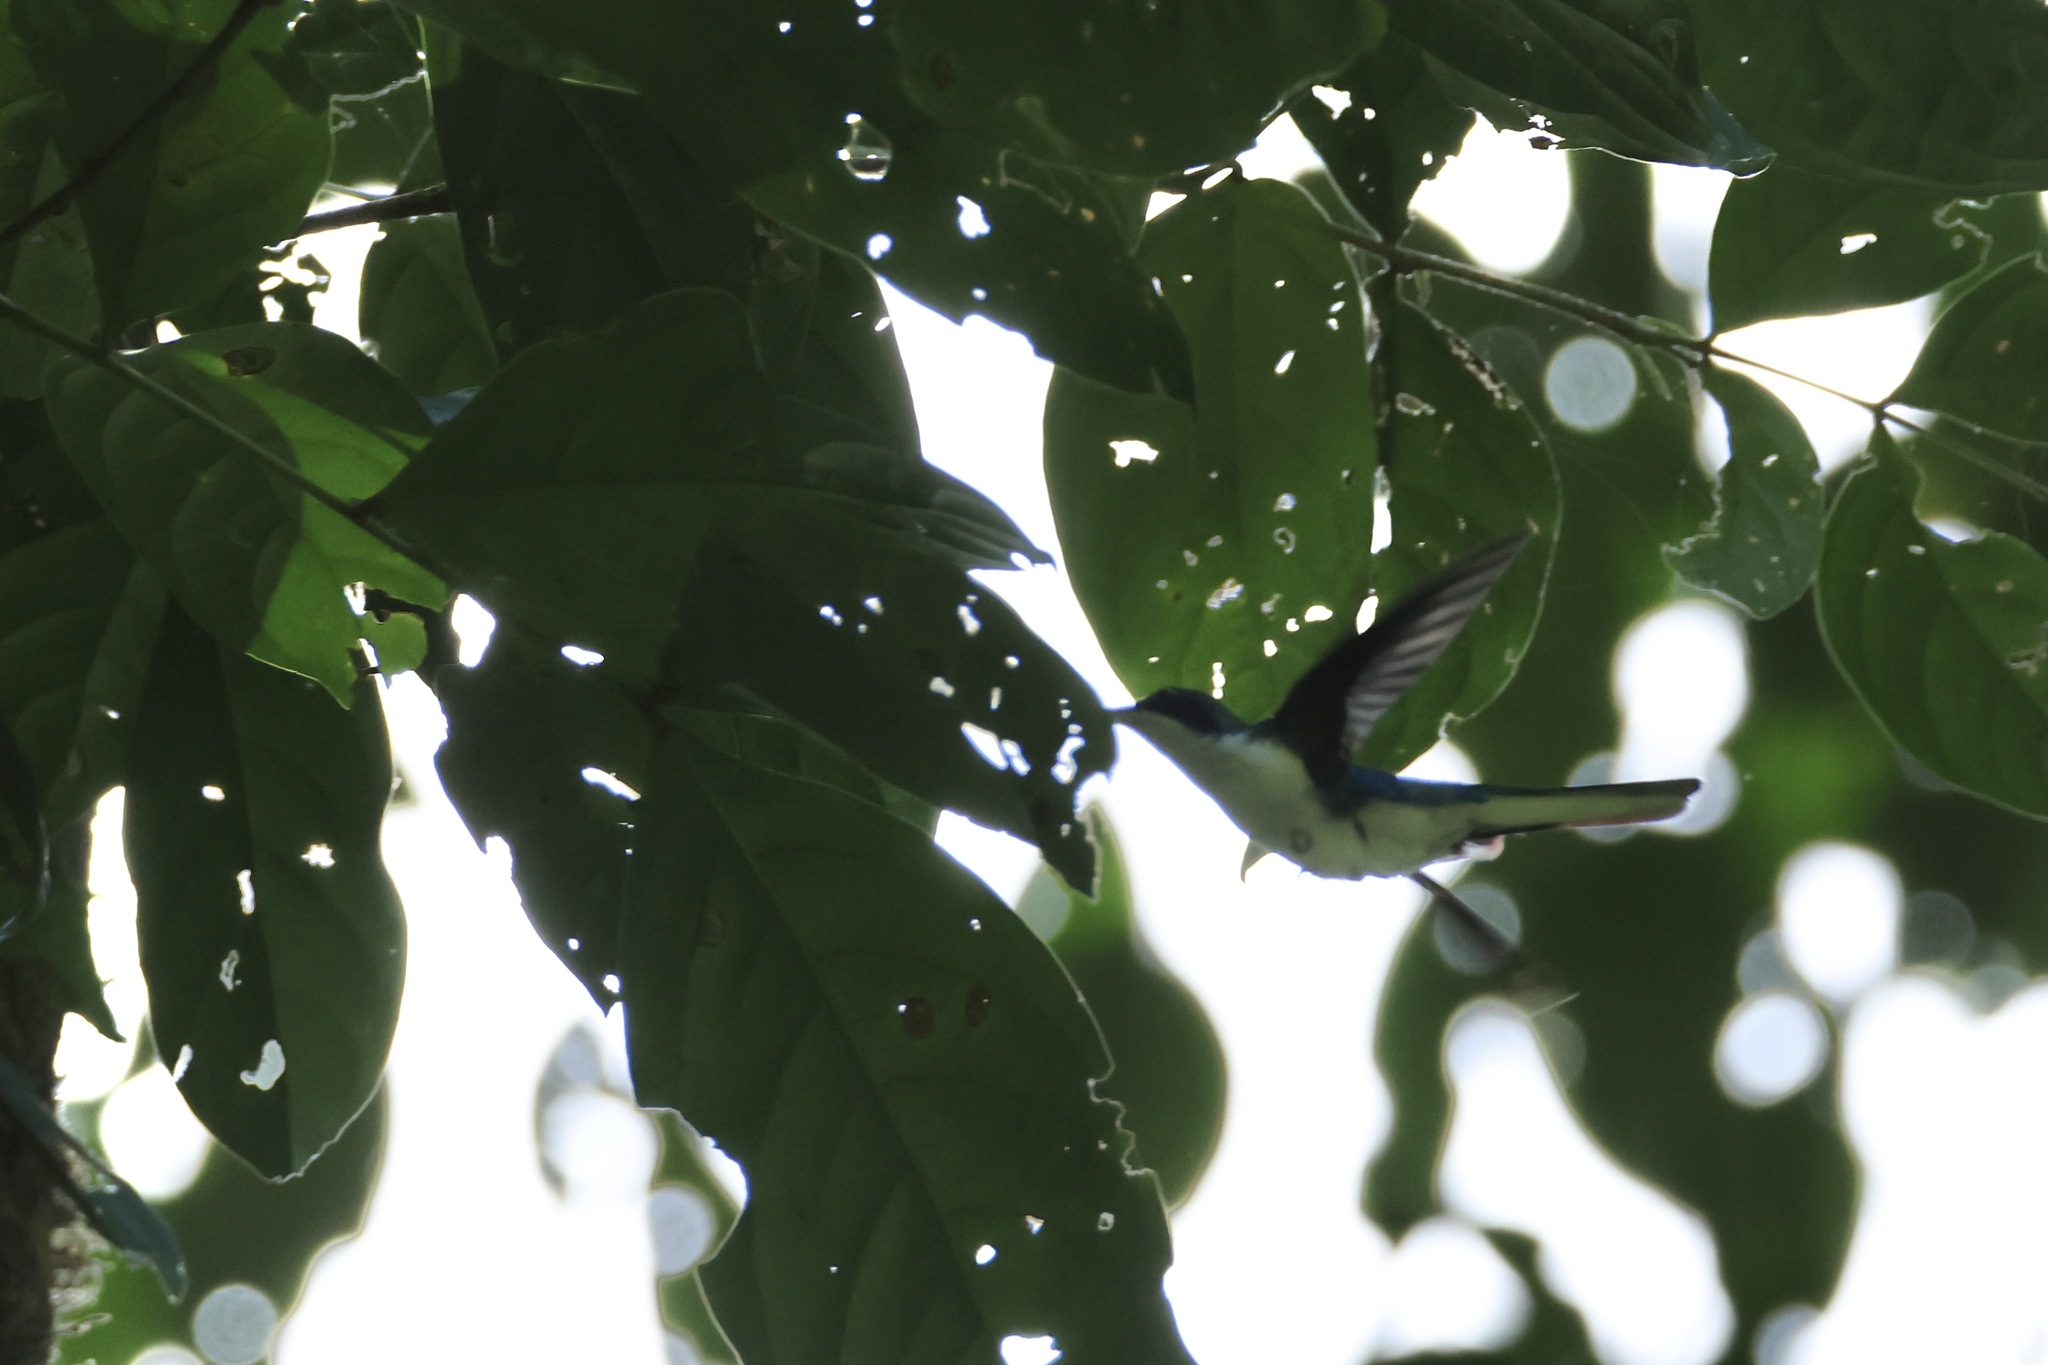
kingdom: Animalia
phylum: Chordata
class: Aves
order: Apodiformes
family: Trochilidae
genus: Heliothryx
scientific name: Heliothryx barroti
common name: Purple-crowned fairy
